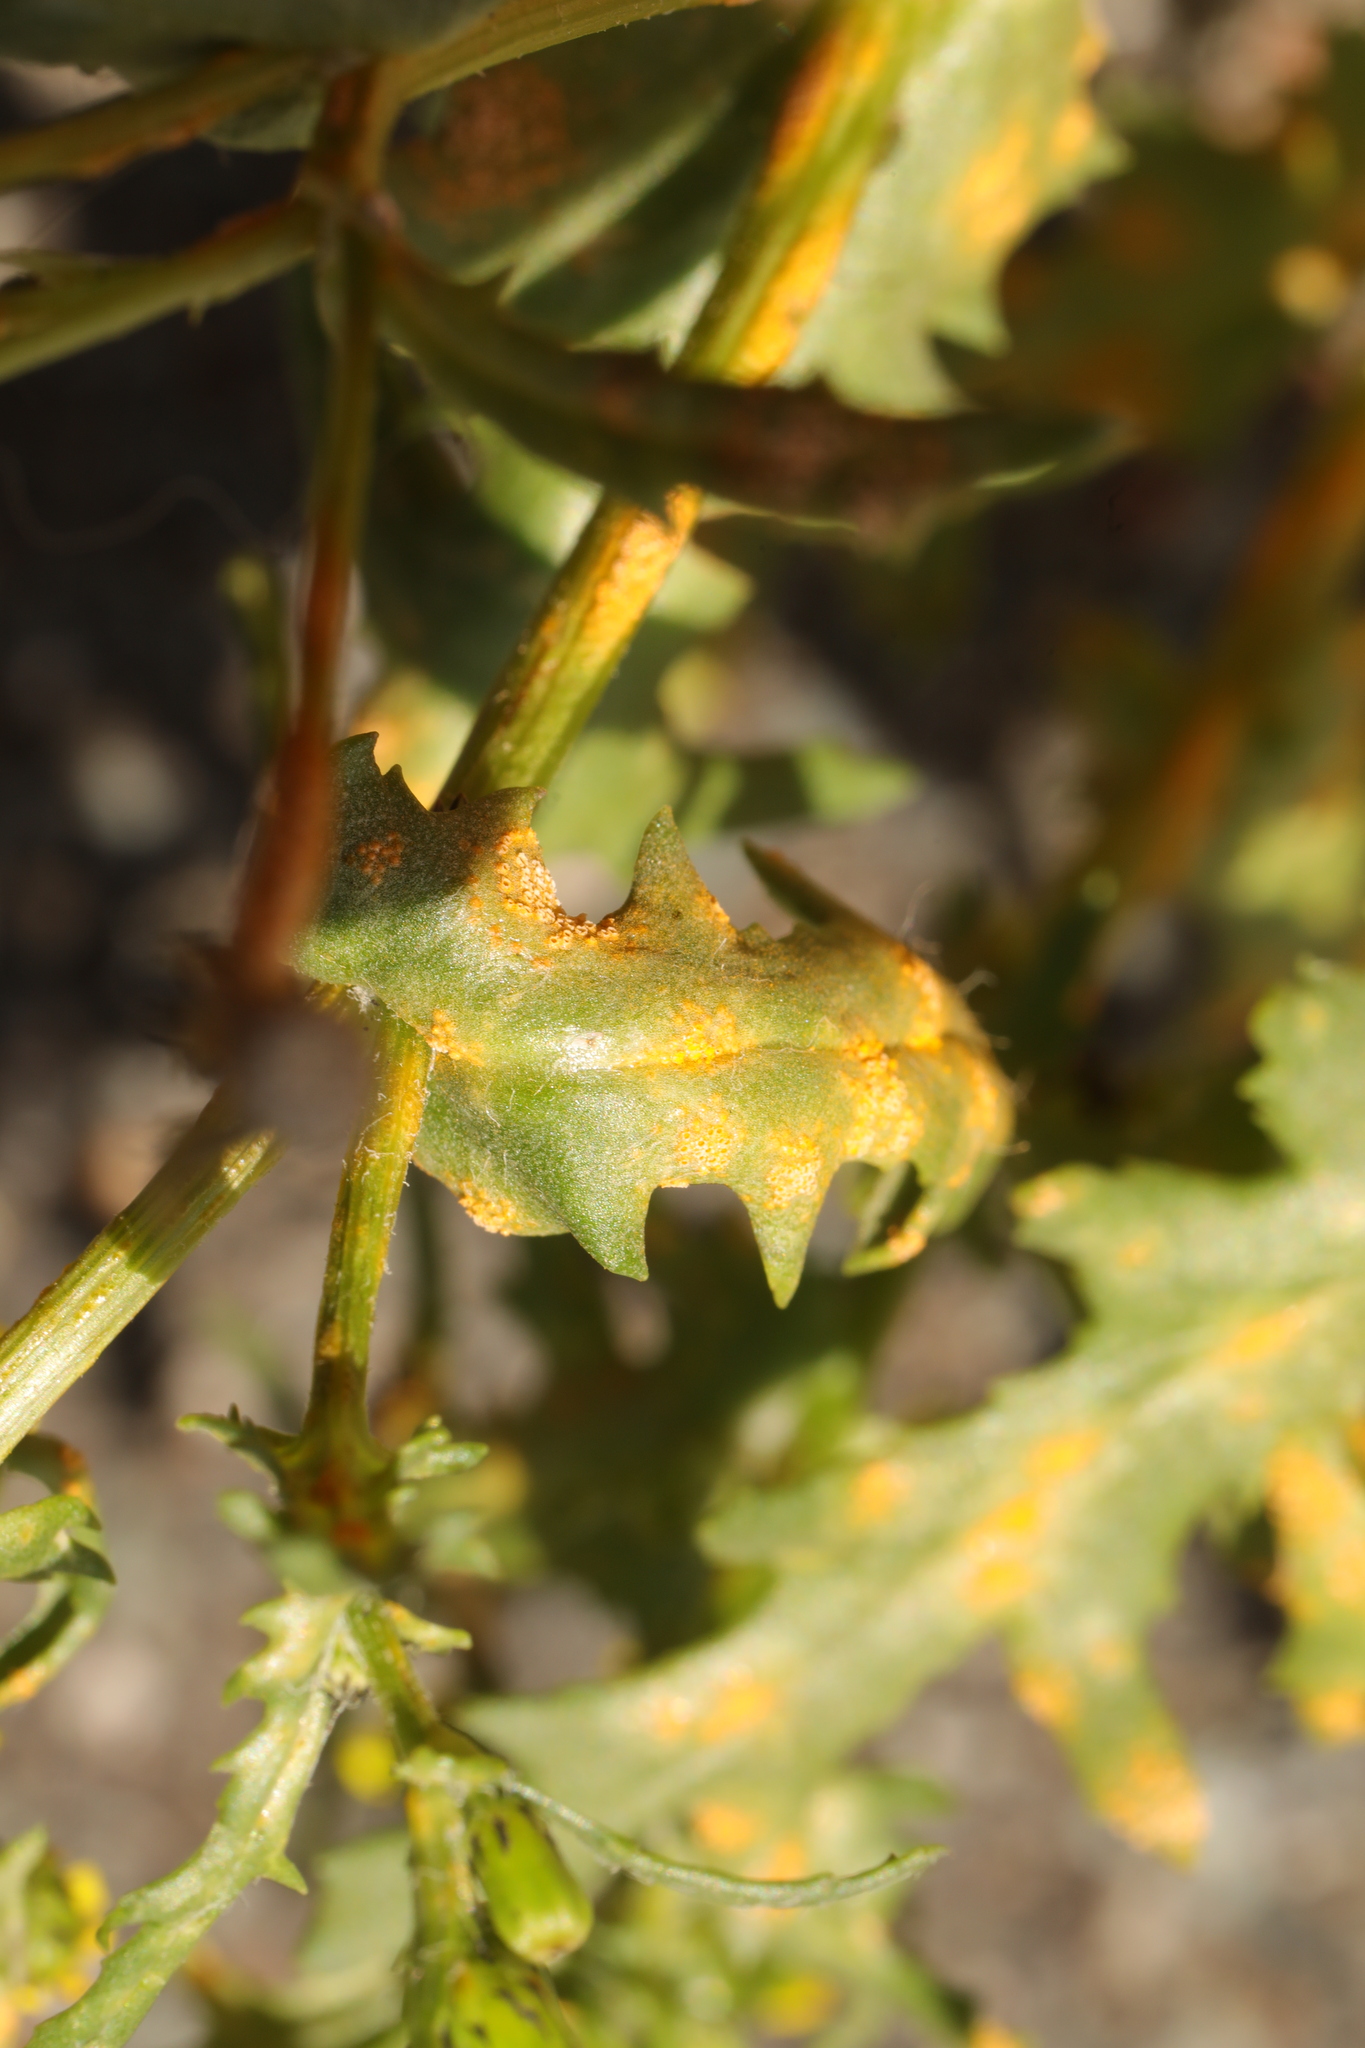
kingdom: Fungi
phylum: Basidiomycota
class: Pucciniomycetes
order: Pucciniales
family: Pucciniaceae
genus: Puccinia
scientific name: Puccinia lagenophorae
